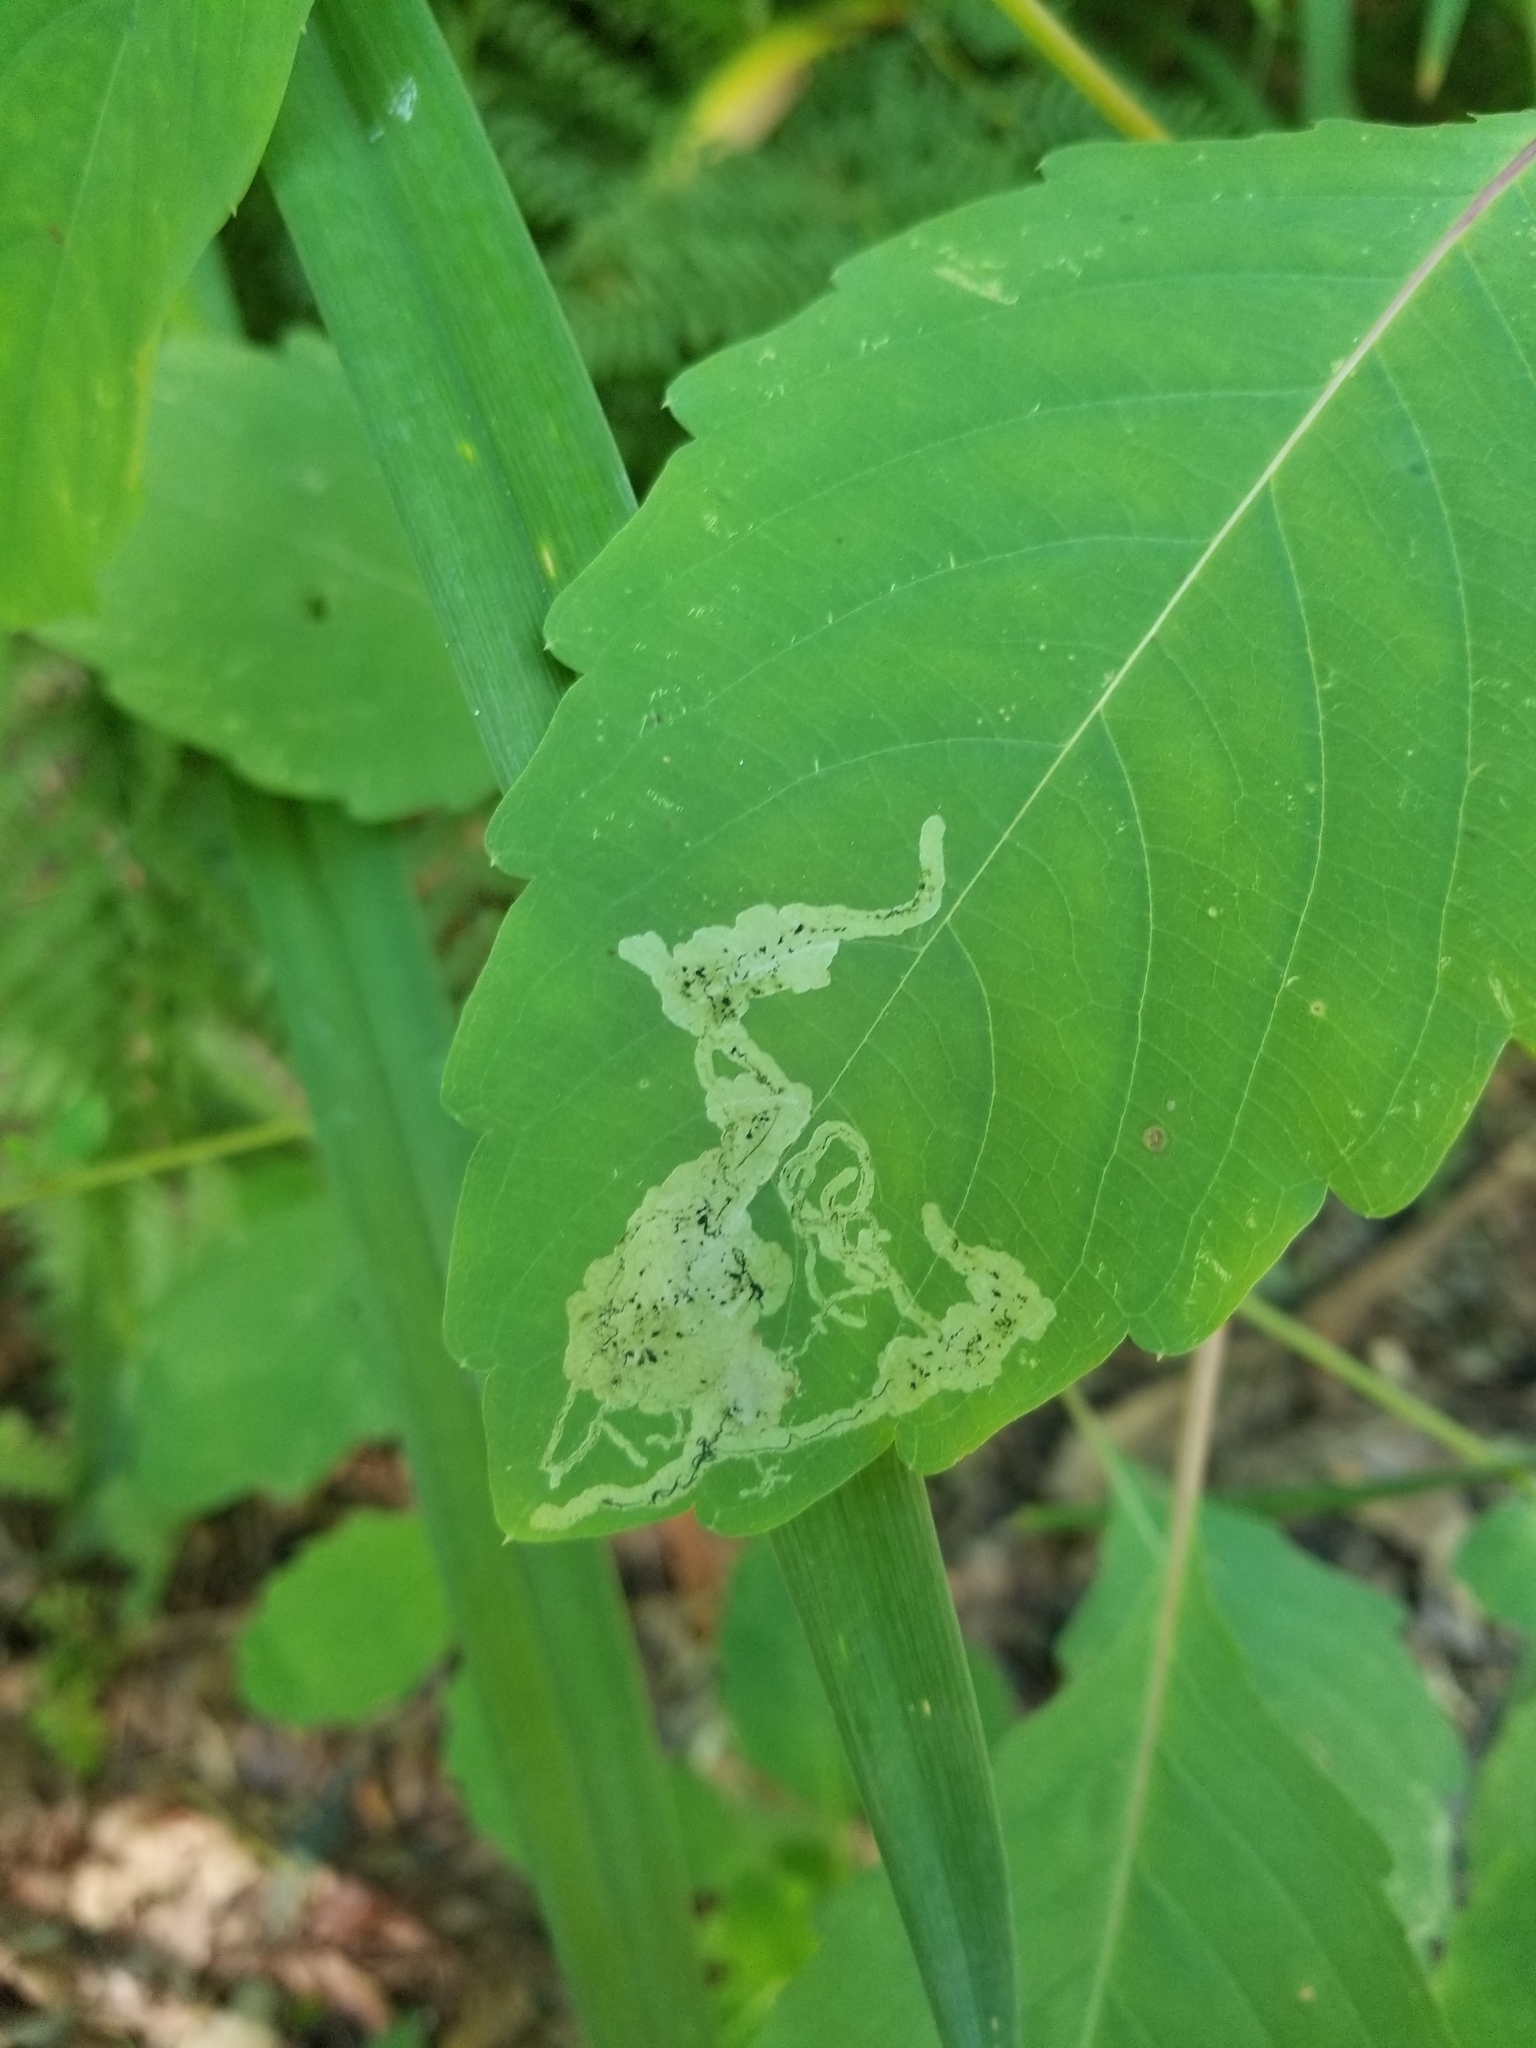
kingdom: Animalia
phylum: Arthropoda
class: Insecta
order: Diptera
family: Agromyzidae
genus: Phytoliriomyza
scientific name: Phytoliriomyza melampyga
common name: Jewelweed leaf-miner fly
